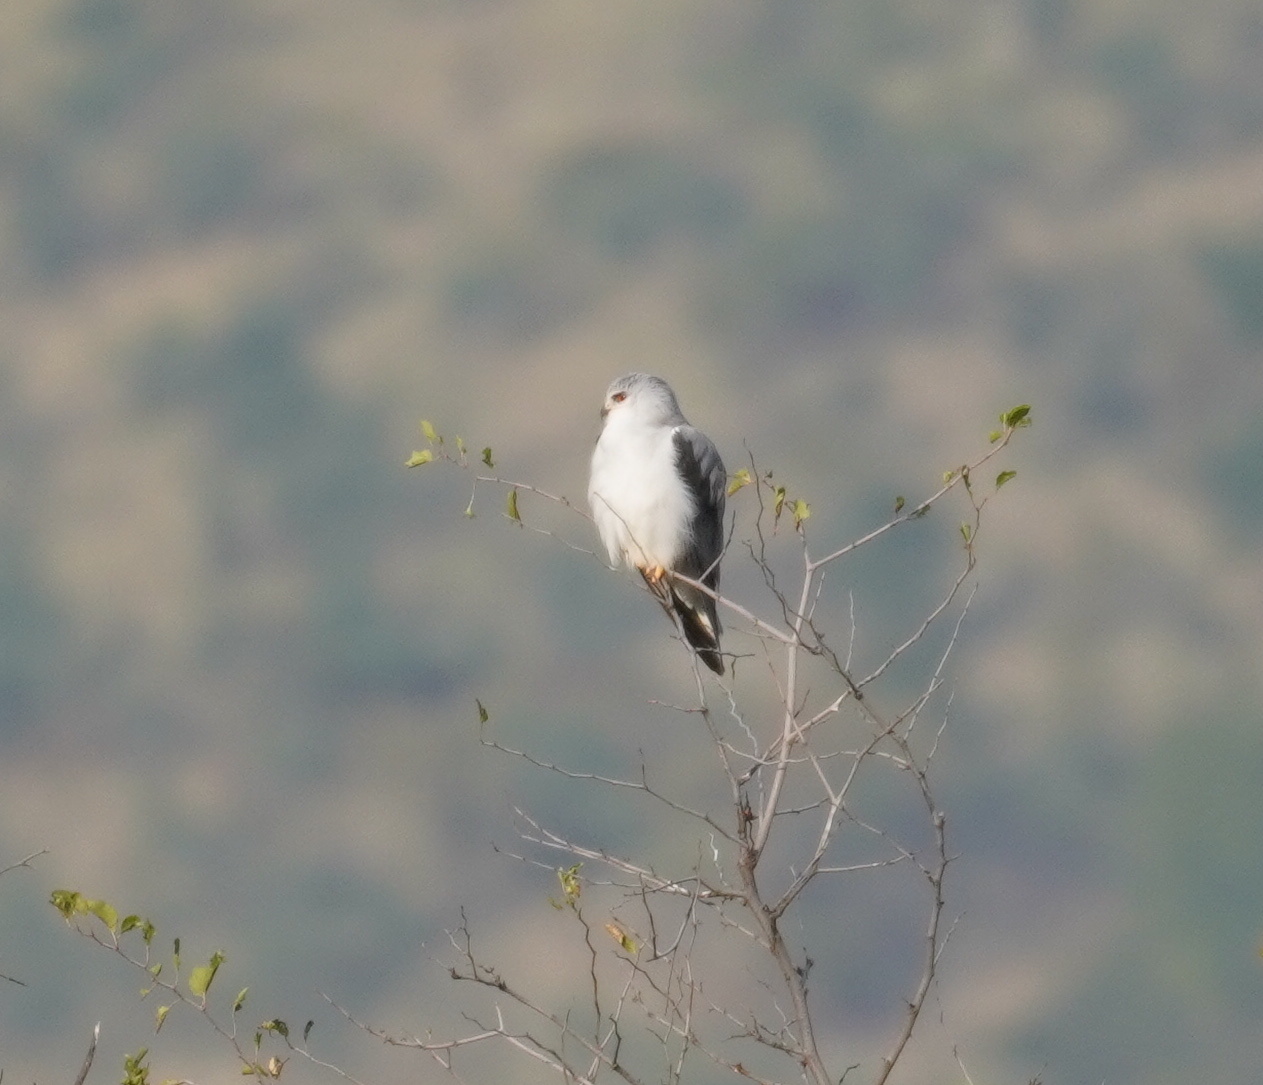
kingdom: Animalia
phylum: Chordata
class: Aves
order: Accipitriformes
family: Accipitridae
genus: Elanus
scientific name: Elanus caeruleus
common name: Black-winged kite
